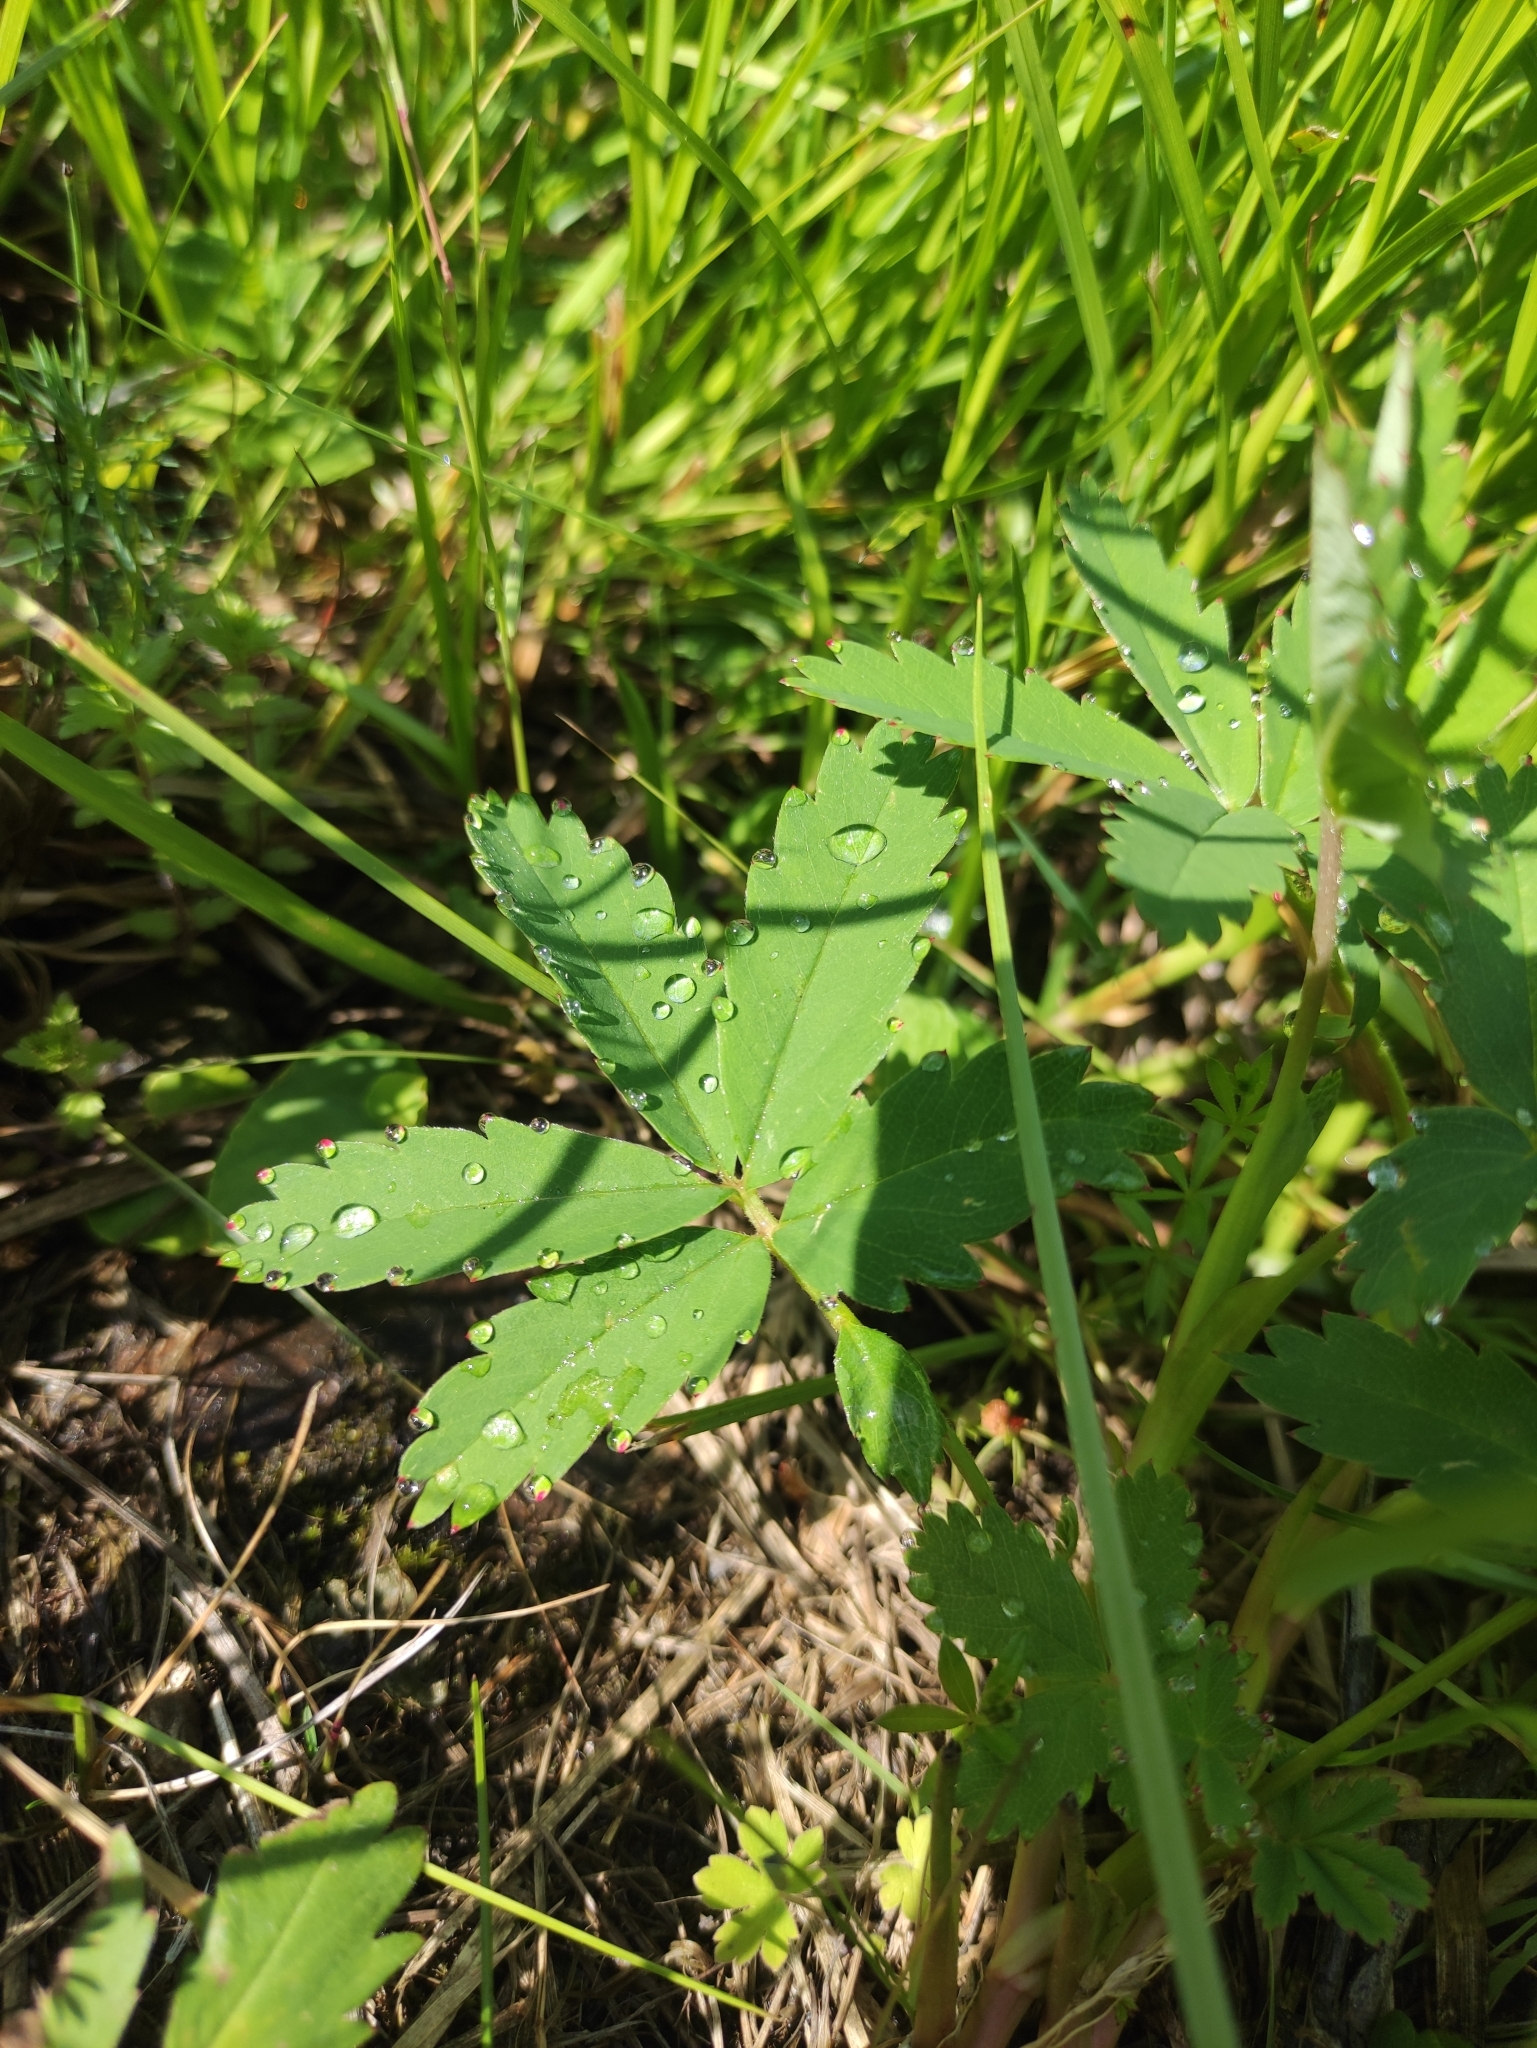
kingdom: Plantae
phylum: Tracheophyta
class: Magnoliopsida
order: Rosales
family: Rosaceae
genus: Comarum
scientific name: Comarum palustre
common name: Marsh cinquefoil
